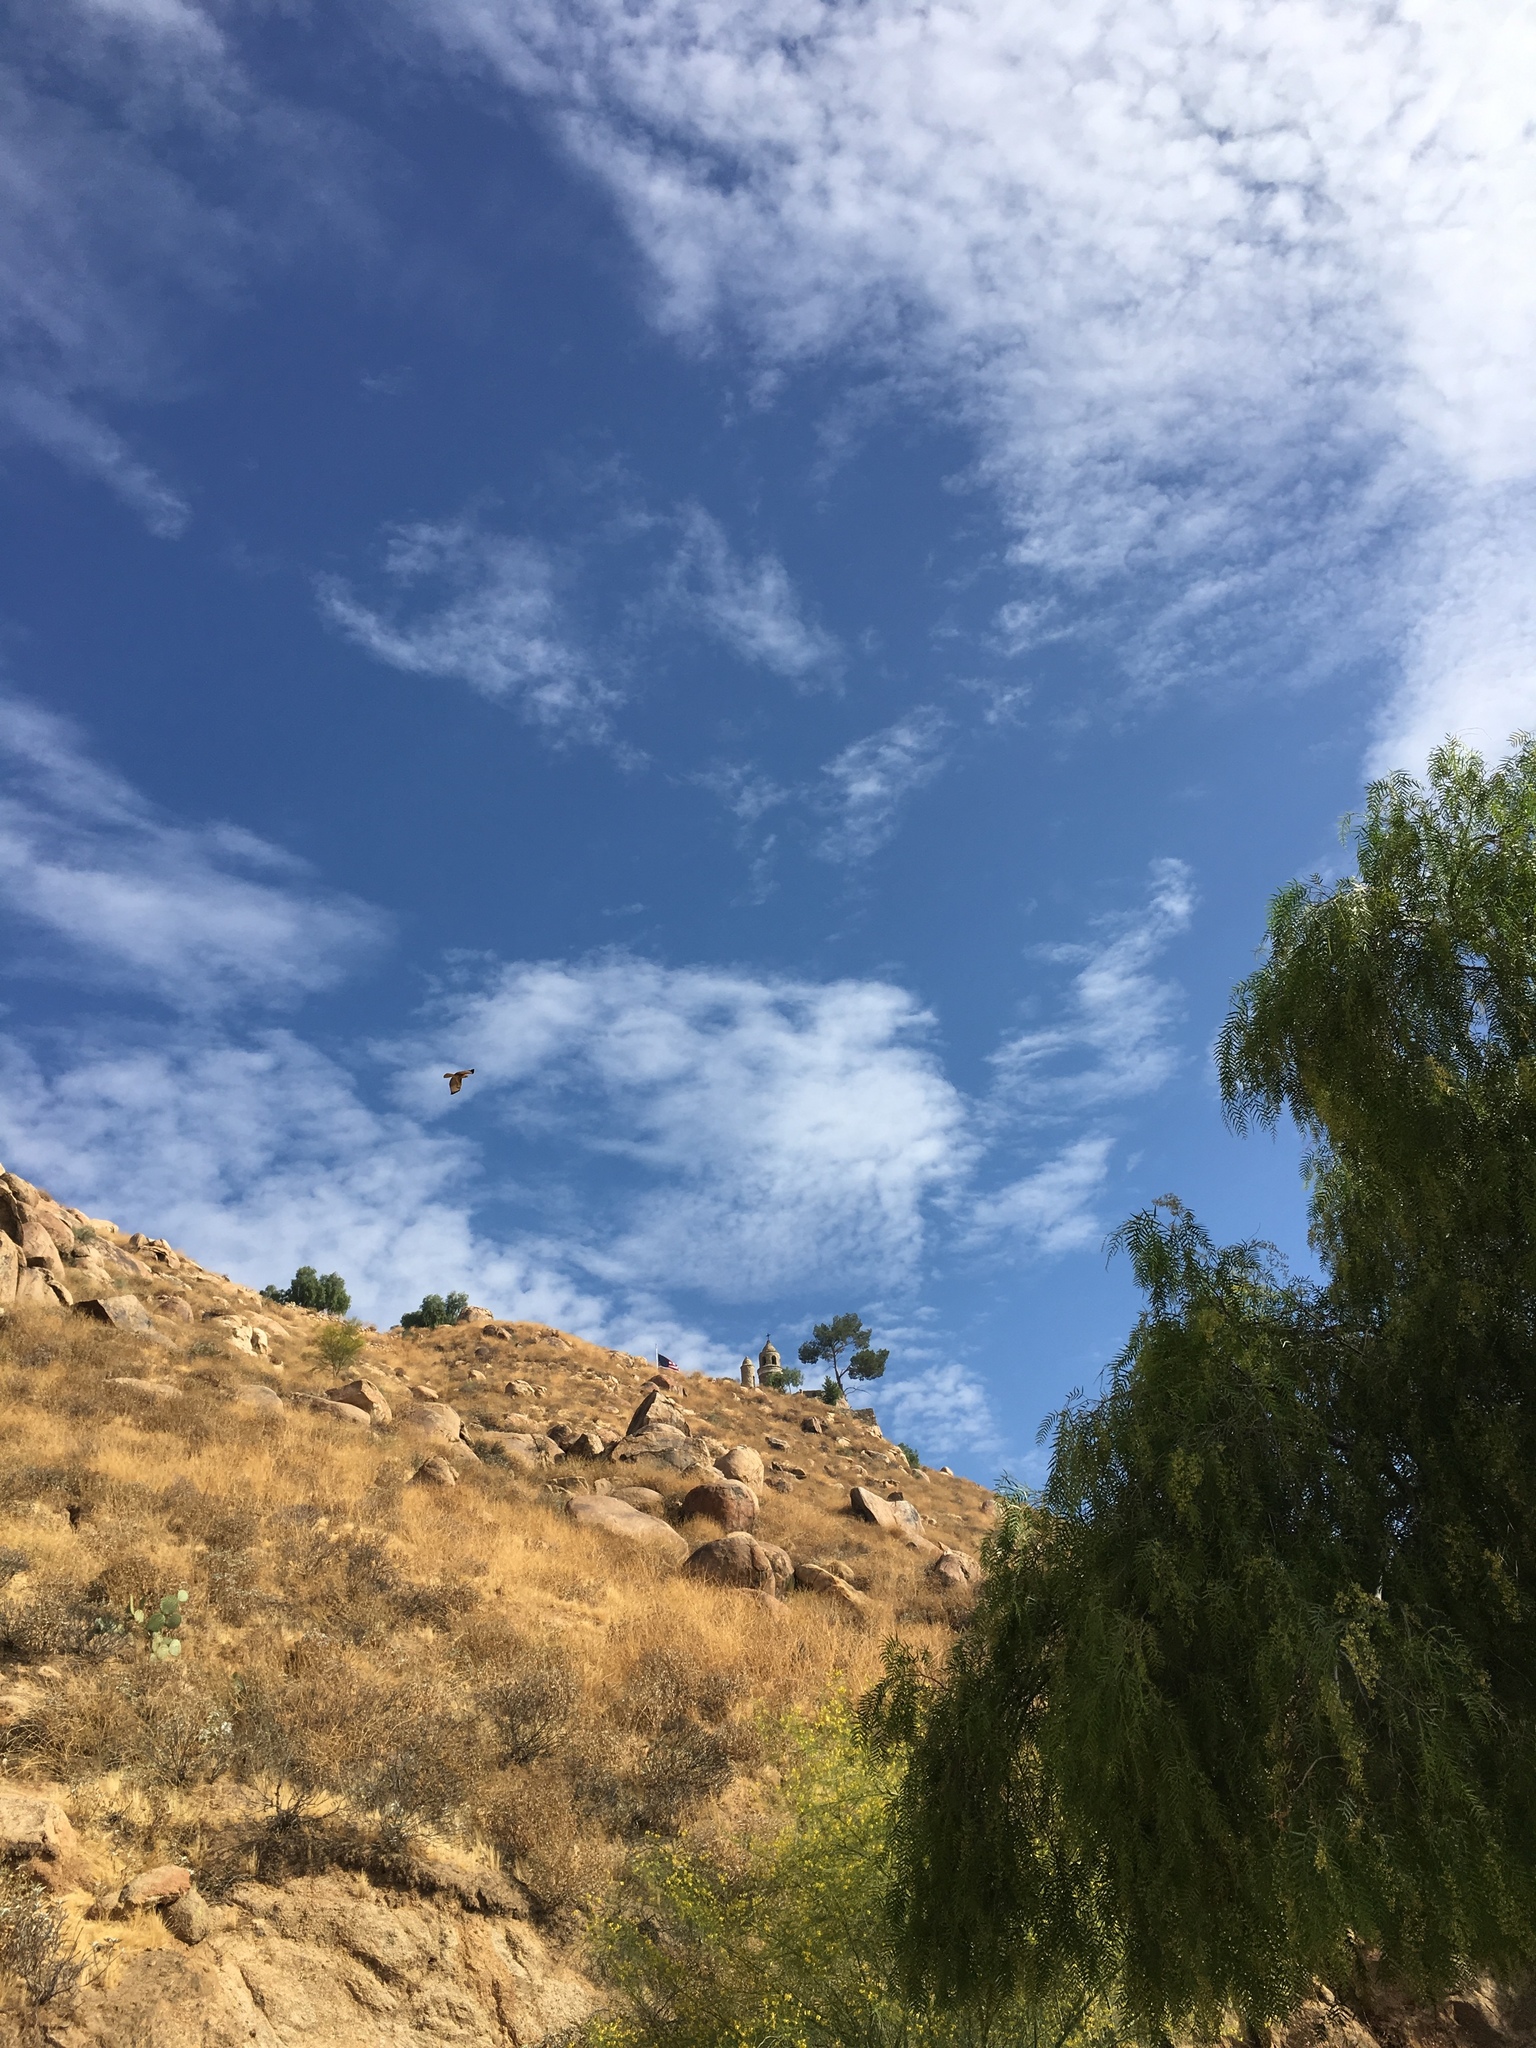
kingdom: Animalia
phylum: Chordata
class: Aves
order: Accipitriformes
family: Accipitridae
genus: Buteo
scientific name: Buteo jamaicensis
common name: Red-tailed hawk
